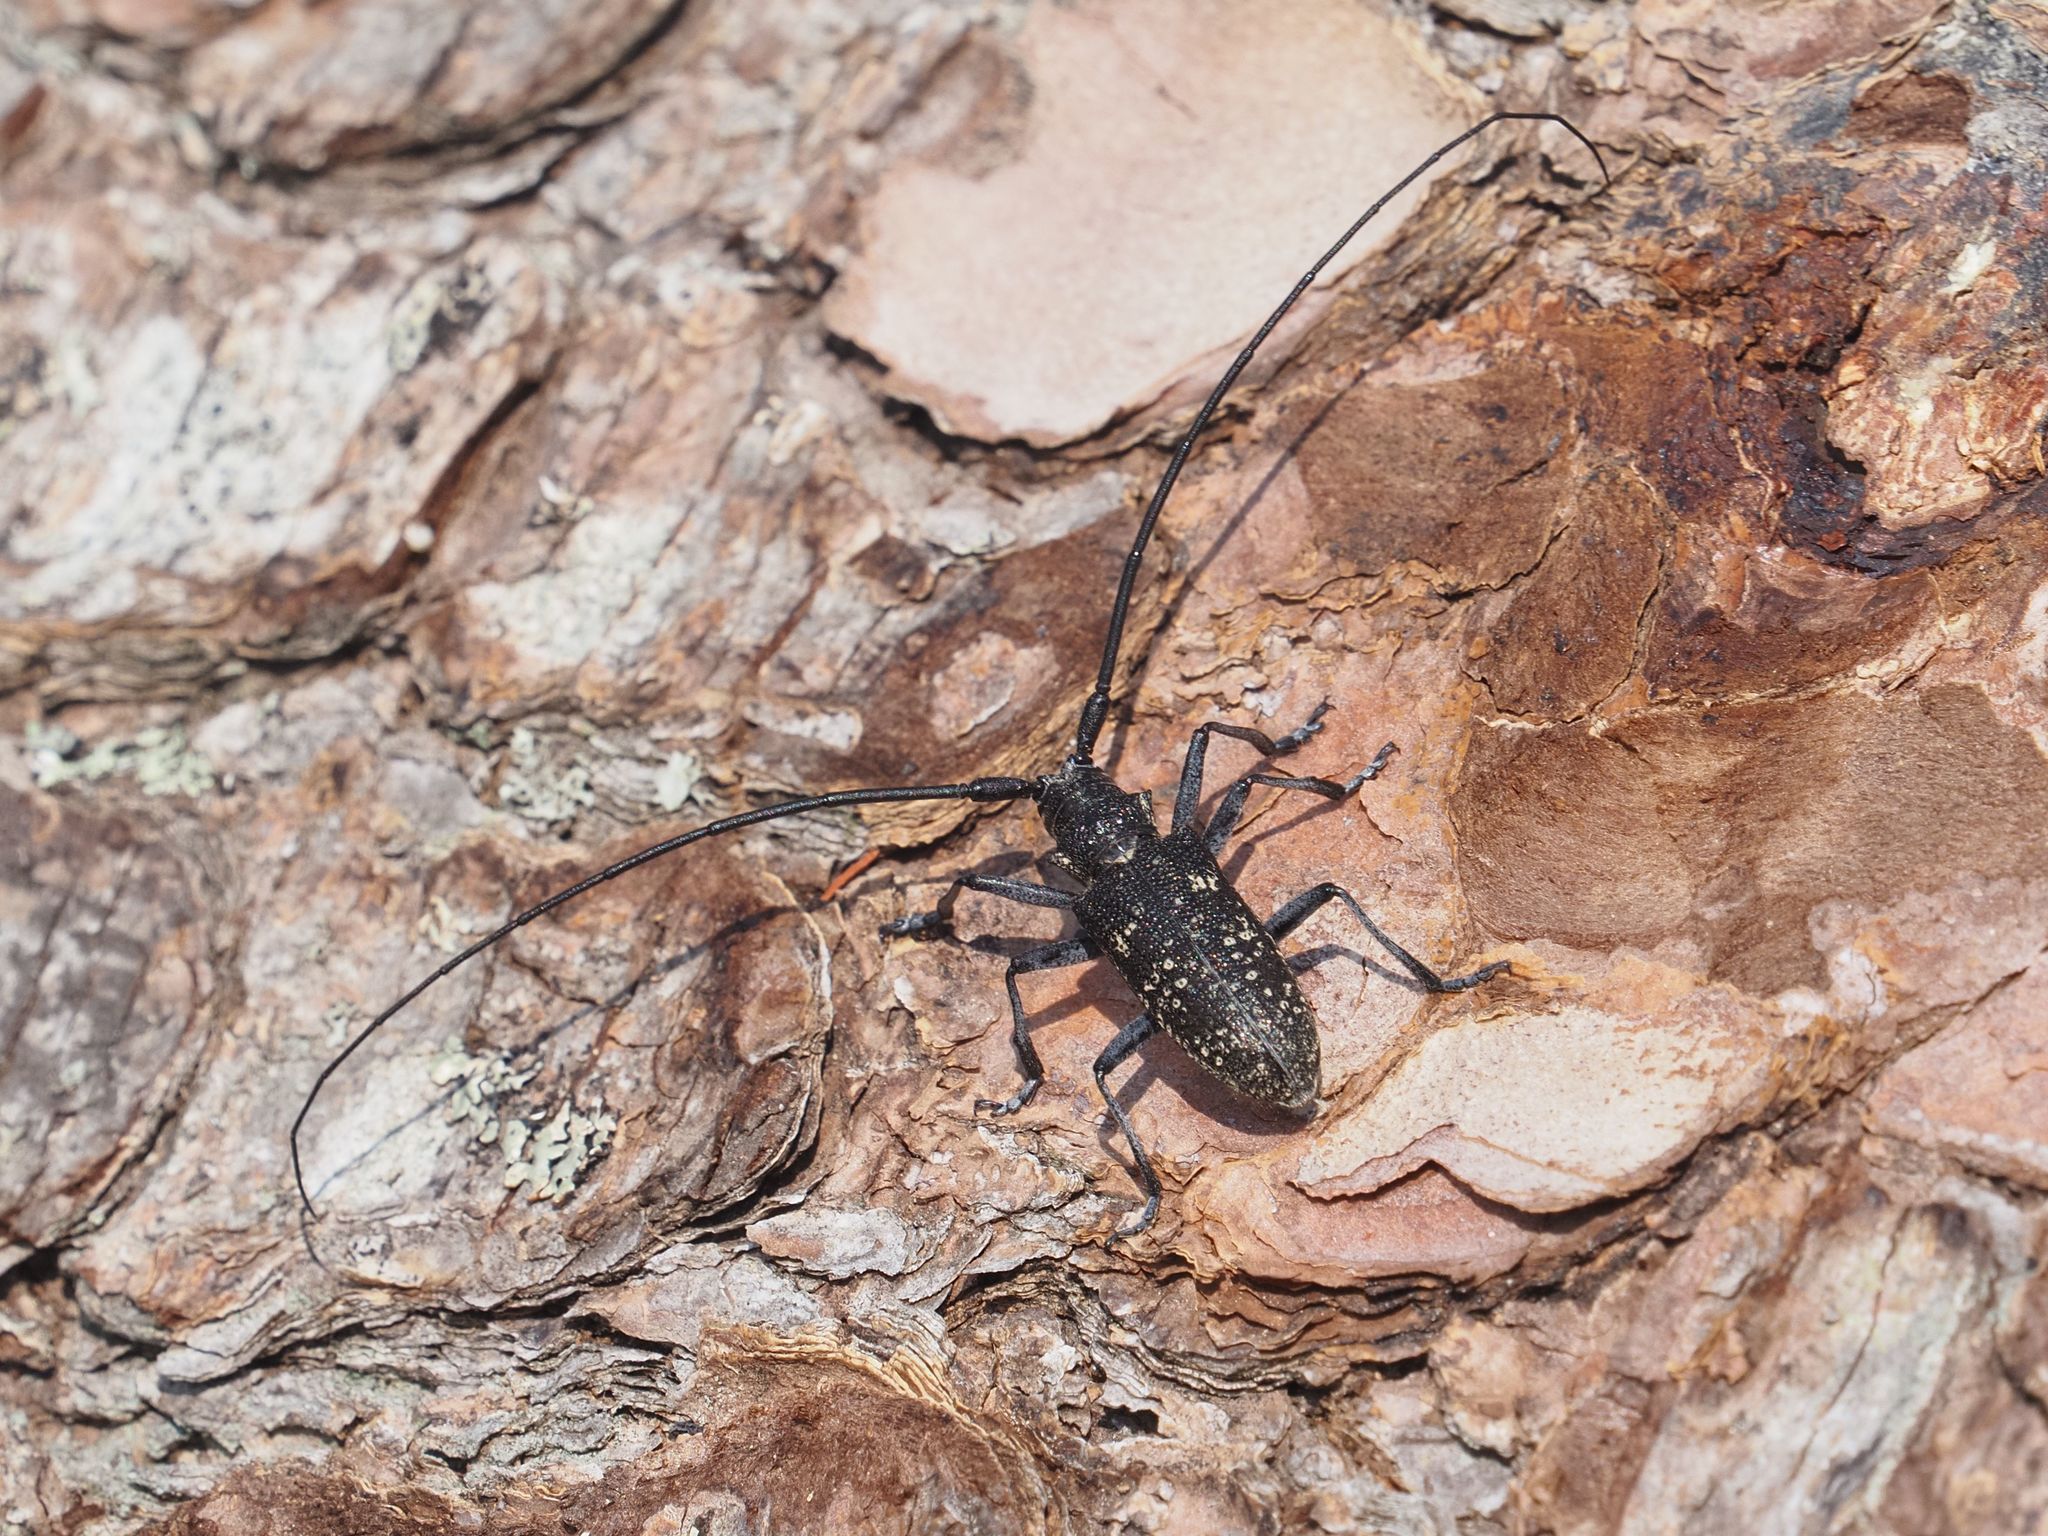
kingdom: Animalia
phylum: Arthropoda
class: Insecta
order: Coleoptera
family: Cerambycidae
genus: Monochamus
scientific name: Monochamus sutor
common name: Pine sawyer
